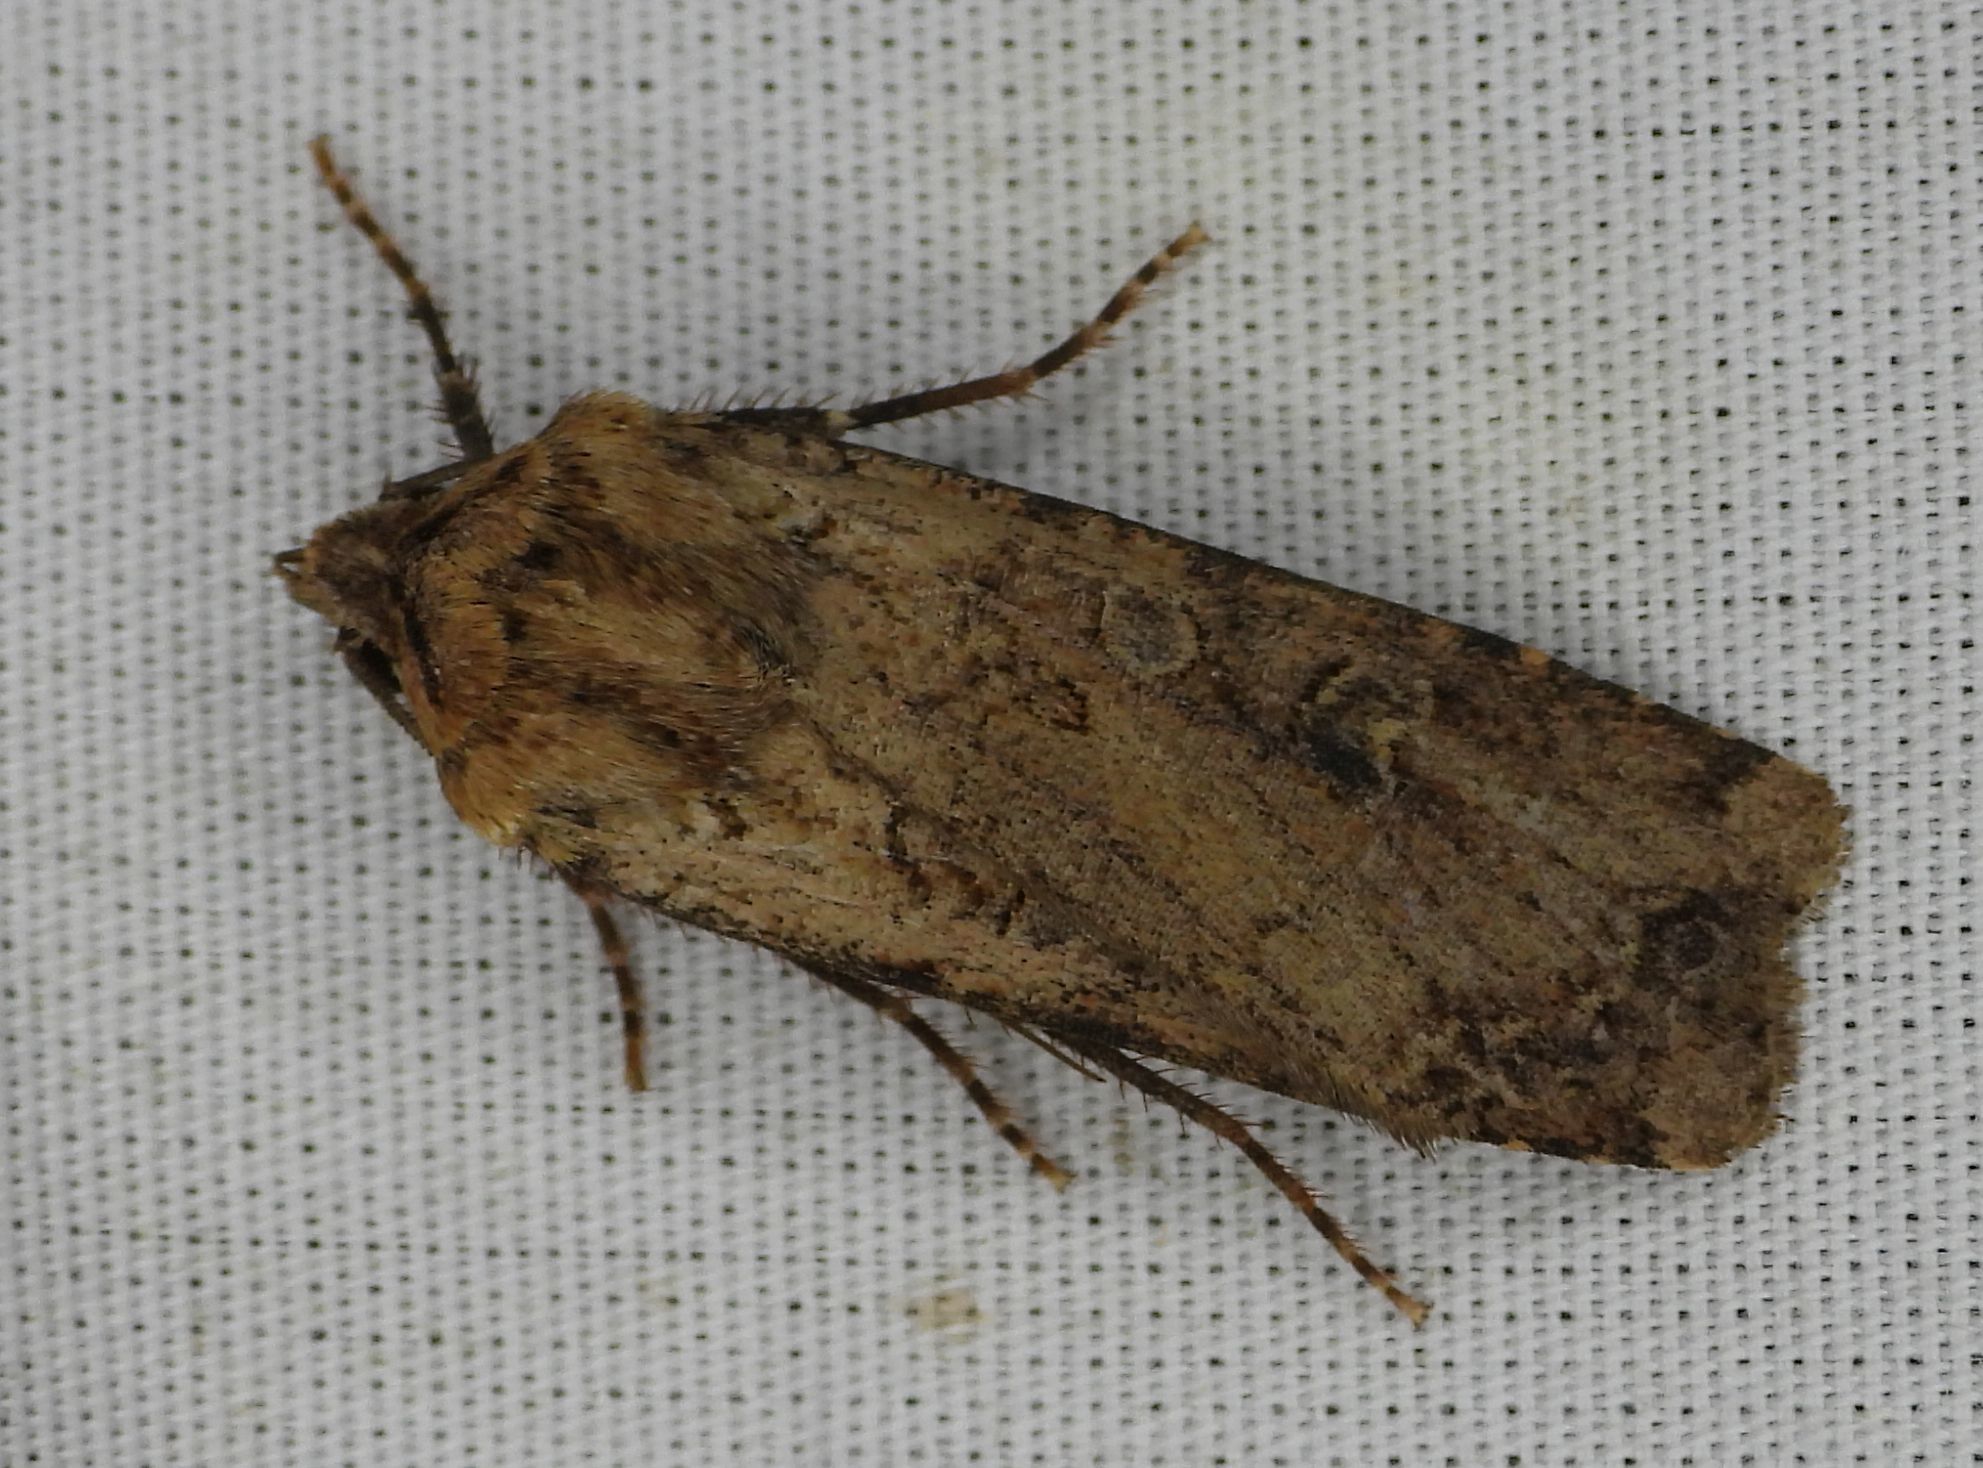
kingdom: Animalia
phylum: Arthropoda
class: Insecta
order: Lepidoptera
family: Noctuidae
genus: Euxoa
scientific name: Euxoa ochrogaster
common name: Red-backed cutworm moth
